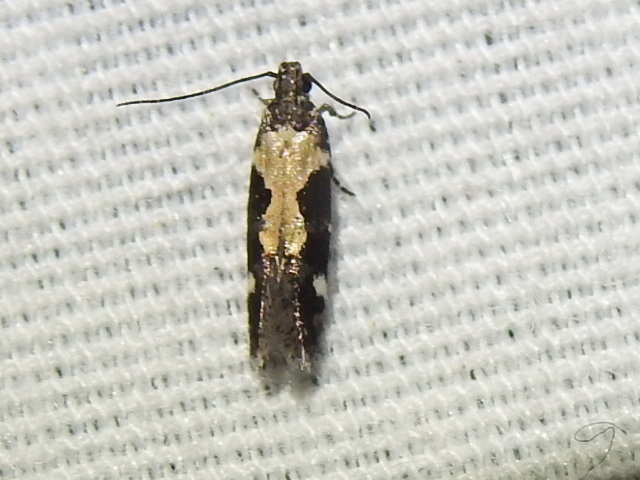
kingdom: Animalia
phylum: Arthropoda
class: Insecta
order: Lepidoptera
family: Gelechiidae
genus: Stegasta
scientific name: Stegasta bosqueella
